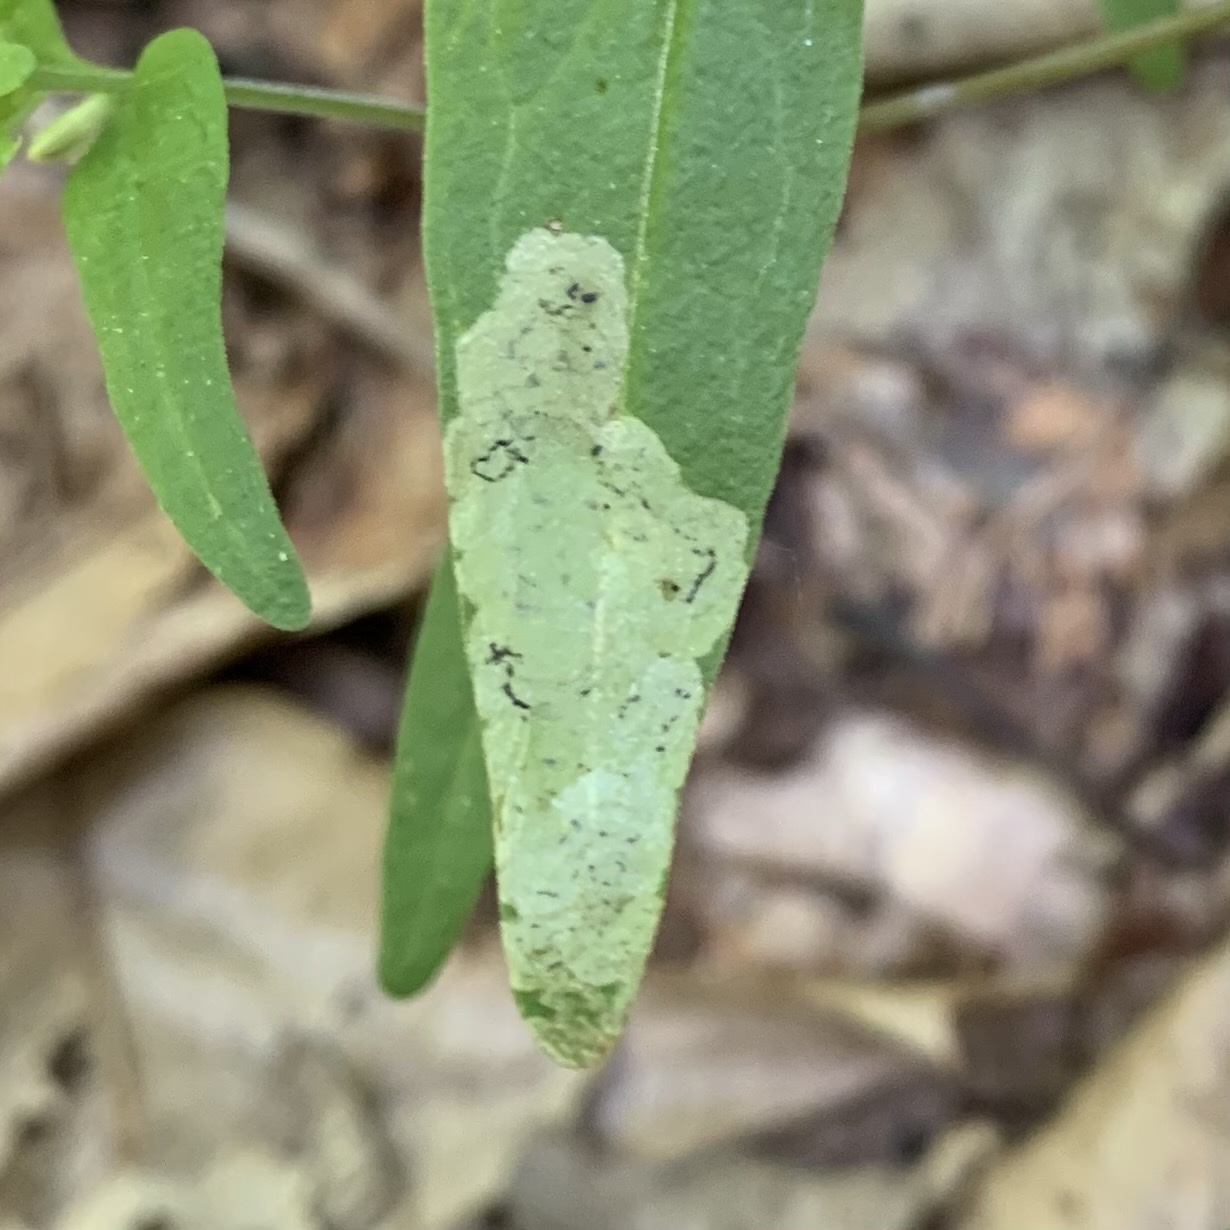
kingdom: Animalia
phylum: Arthropoda
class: Insecta
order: Diptera
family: Agromyzidae
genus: Liriomyza
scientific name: Liriomyza pistilla
